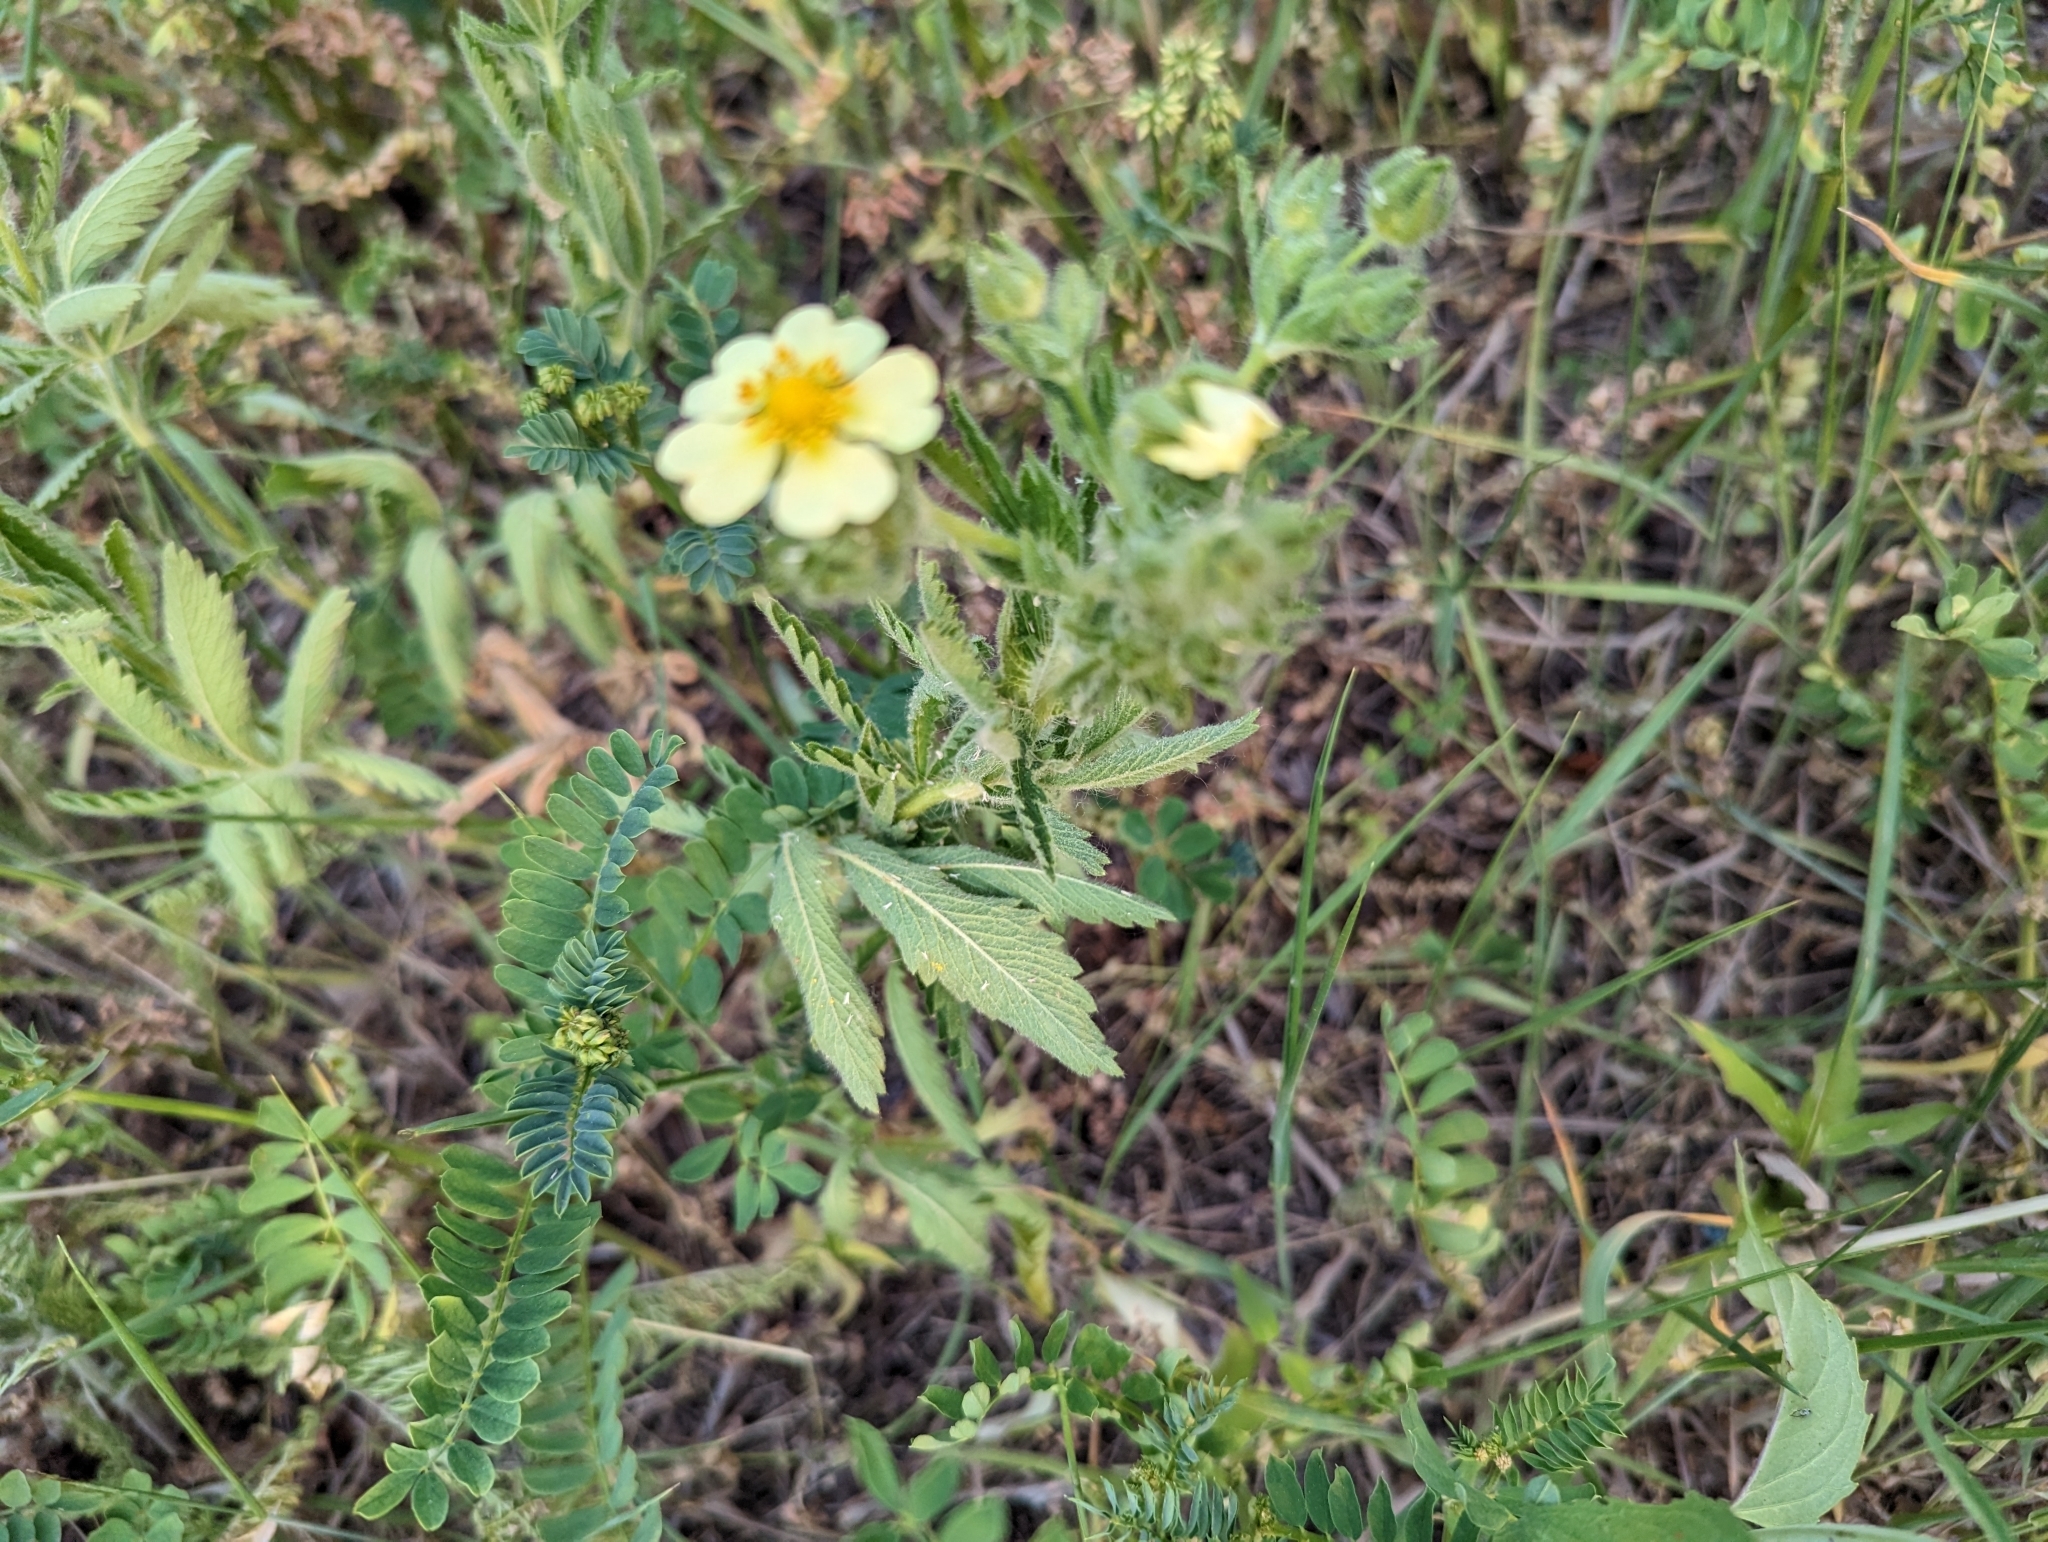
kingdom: Plantae
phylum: Tracheophyta
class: Magnoliopsida
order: Rosales
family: Rosaceae
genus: Potentilla
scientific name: Potentilla recta
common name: Sulphur cinquefoil
